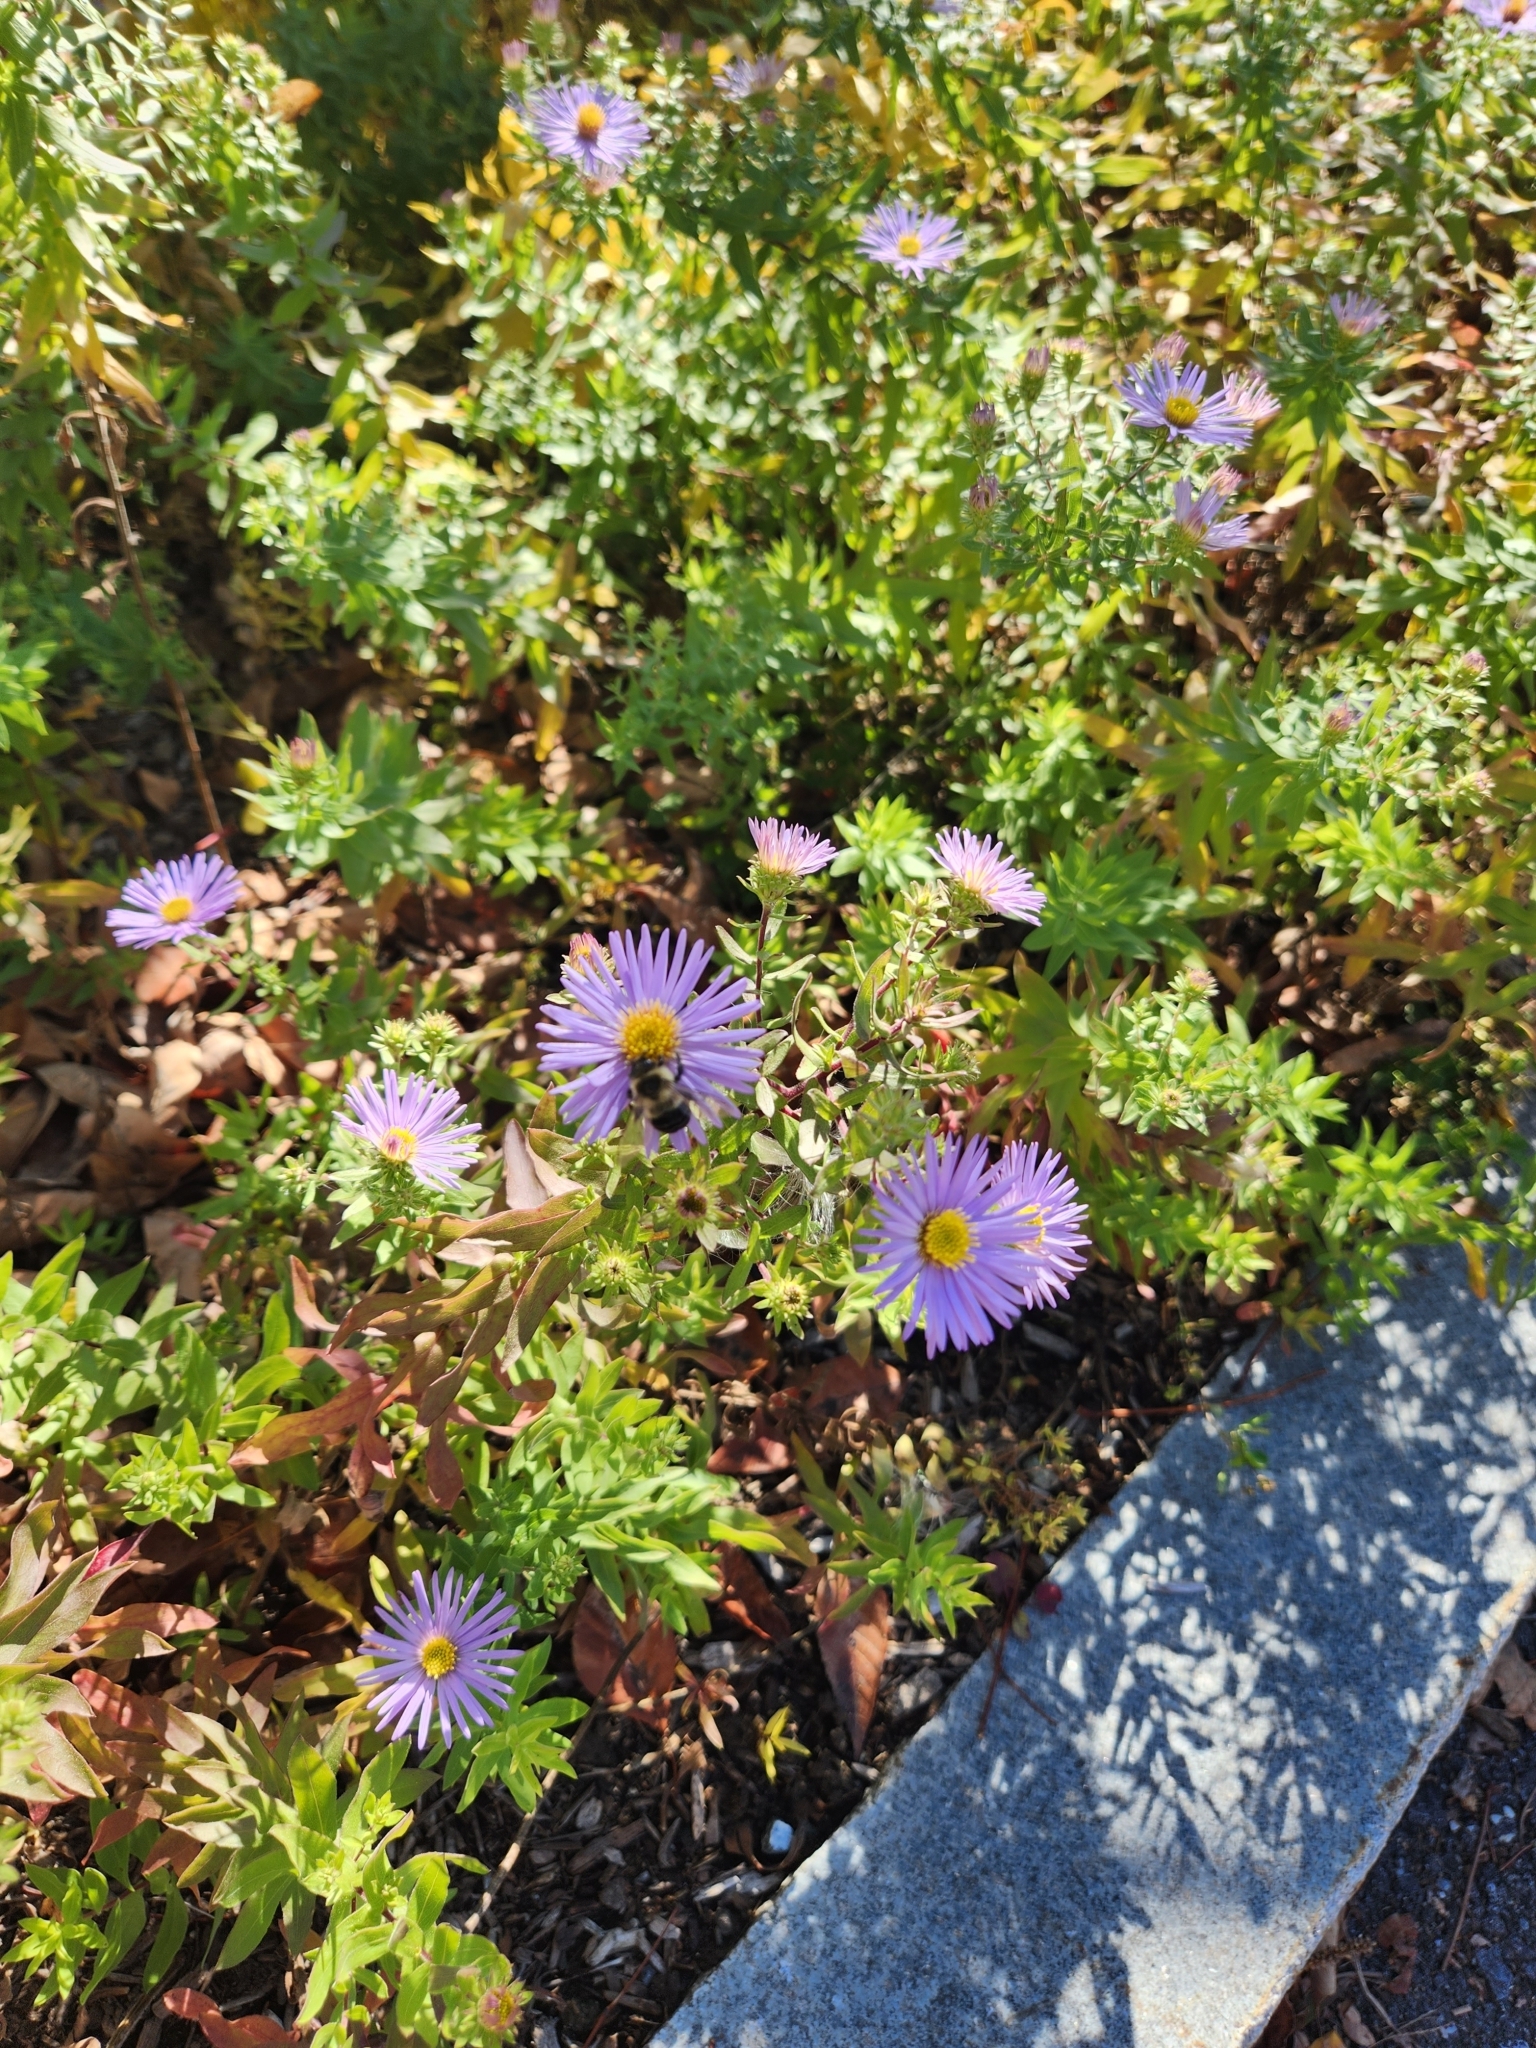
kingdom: Animalia
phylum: Arthropoda
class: Insecta
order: Hymenoptera
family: Apidae
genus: Bombus
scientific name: Bombus impatiens
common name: Common eastern bumble bee
